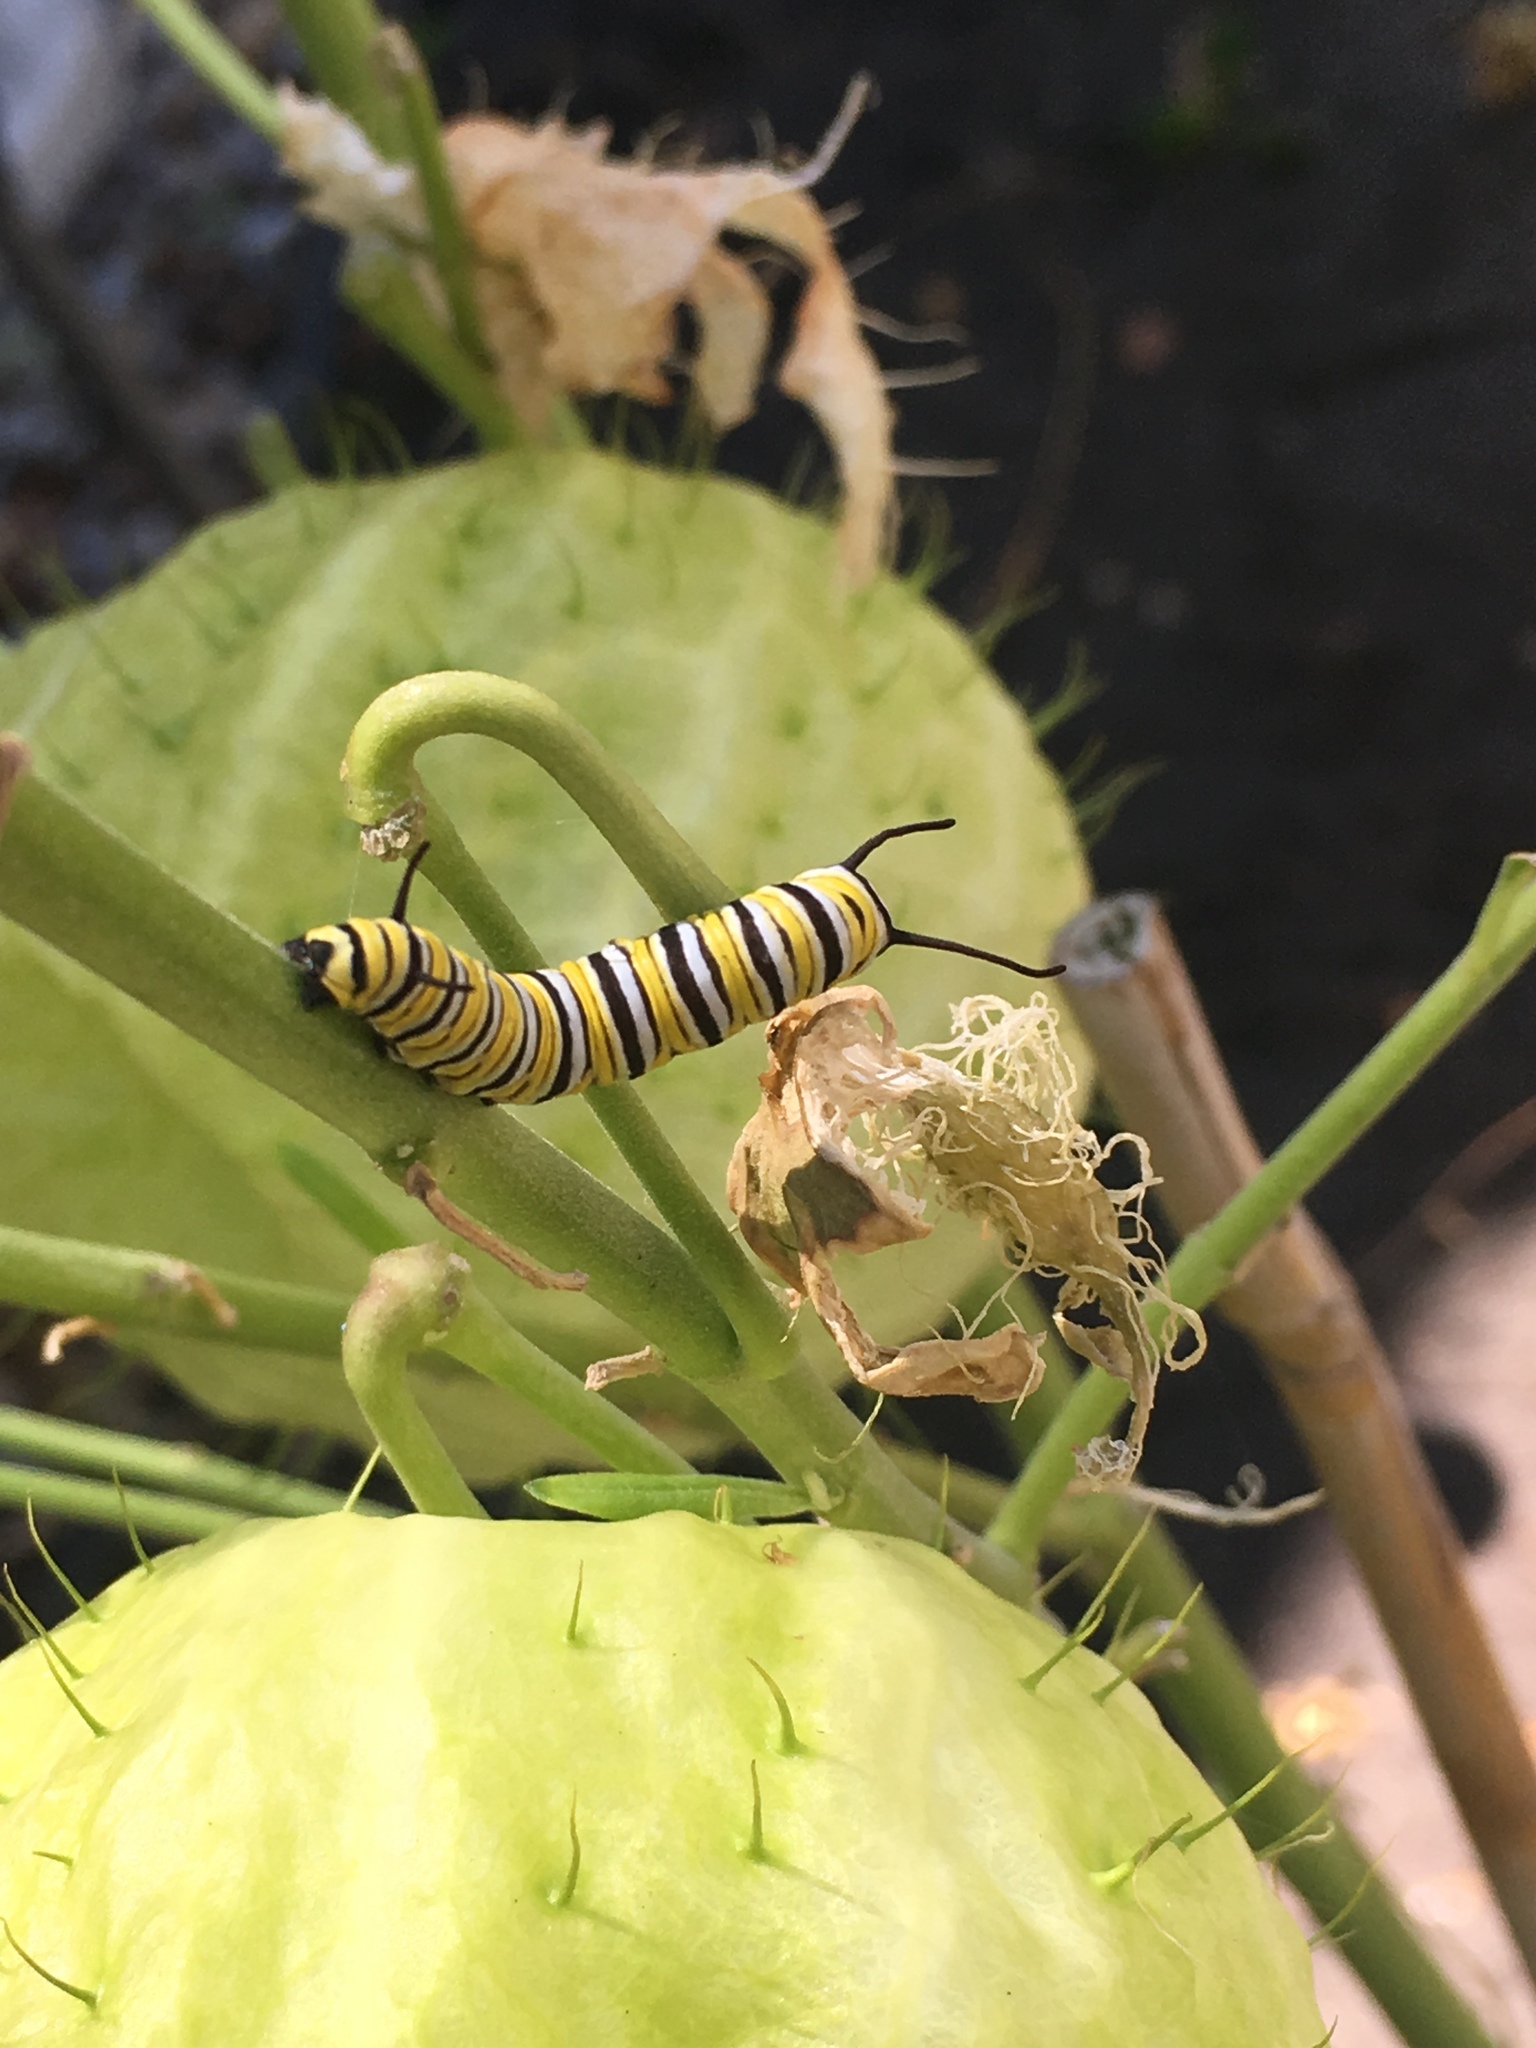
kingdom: Animalia
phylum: Arthropoda
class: Insecta
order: Lepidoptera
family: Nymphalidae
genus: Danaus
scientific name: Danaus plexippus
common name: Monarch
